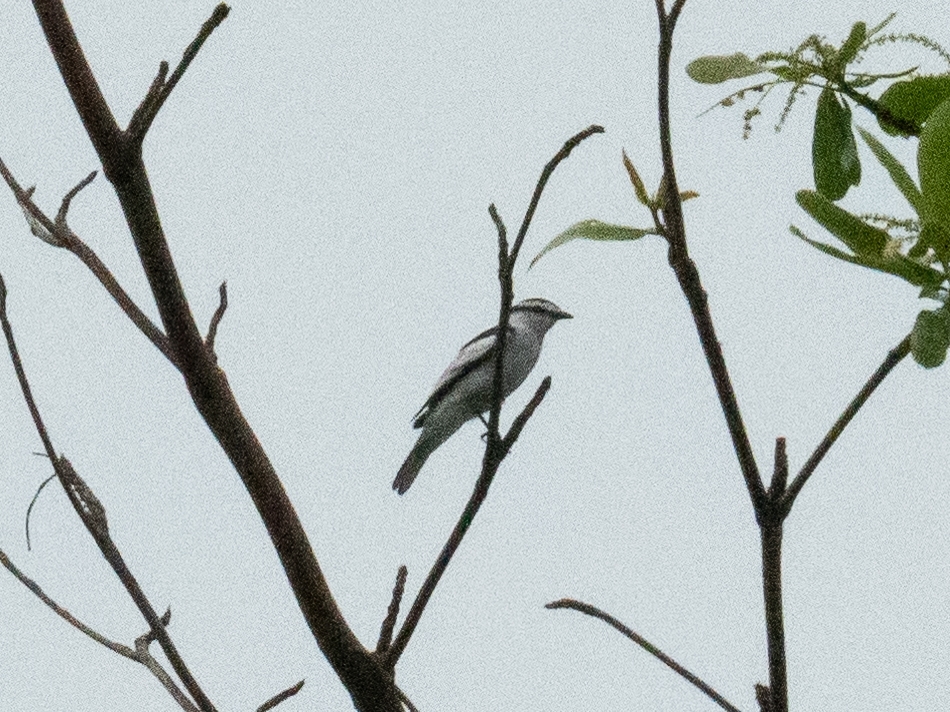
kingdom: Animalia
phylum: Chordata
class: Aves
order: Passeriformes
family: Campephagidae
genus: Lalage
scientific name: Lalage nigra
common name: Pied triller
